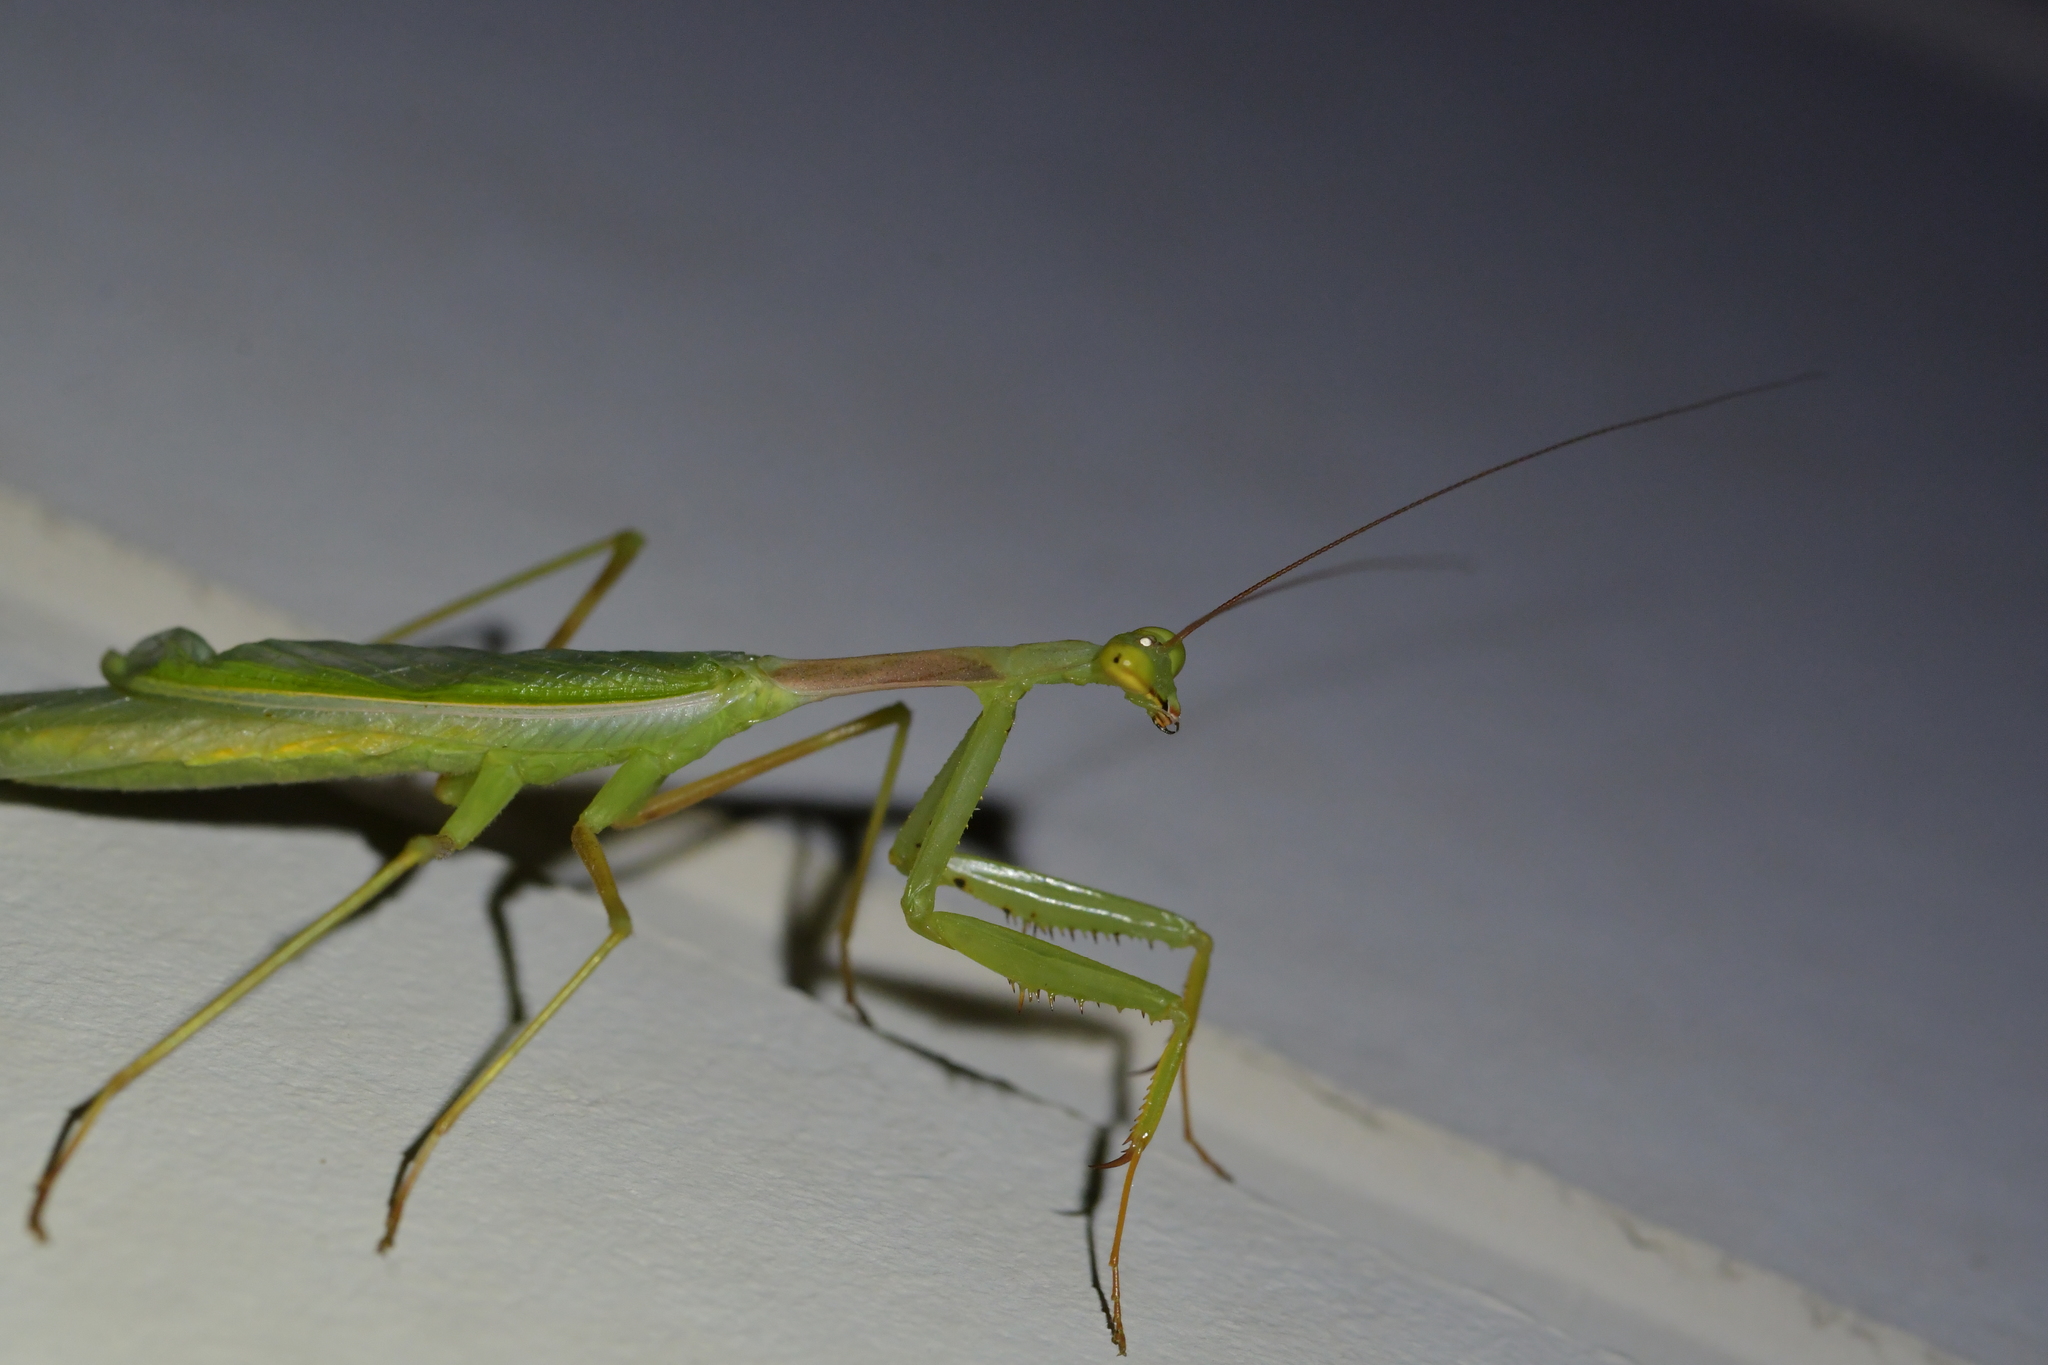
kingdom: Animalia
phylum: Arthropoda
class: Insecta
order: Mantodea
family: Miomantidae
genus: Miomantis
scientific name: Miomantis caffra
